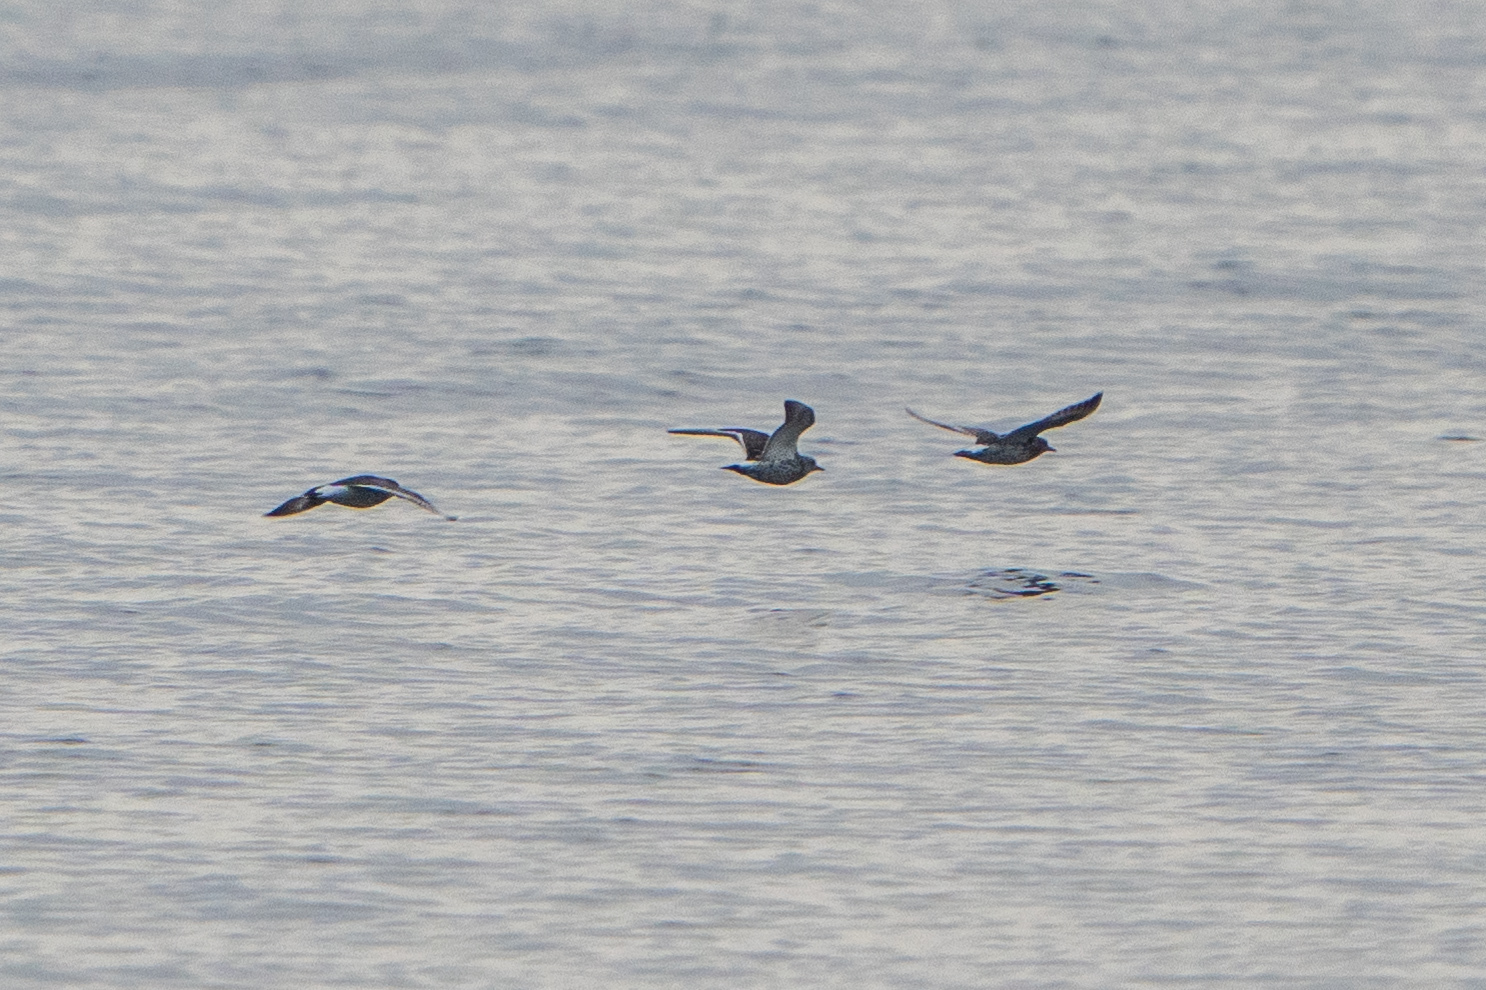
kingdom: Animalia
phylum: Chordata
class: Aves
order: Charadriiformes
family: Scolopacidae
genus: Calidris
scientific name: Calidris virgata
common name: Surfbird
